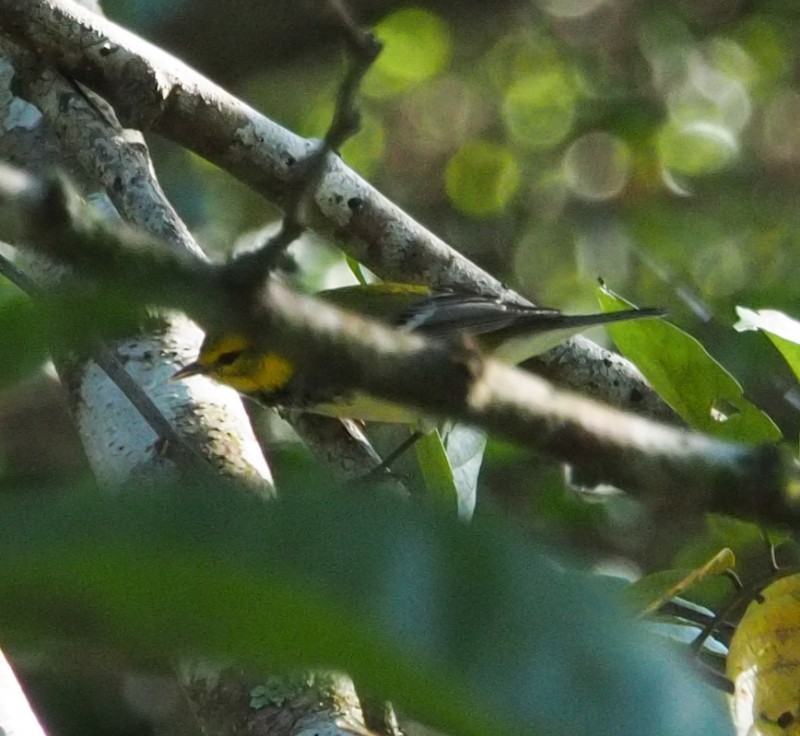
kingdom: Animalia
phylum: Chordata
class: Aves
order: Passeriformes
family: Parulidae
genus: Setophaga
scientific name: Setophaga virens
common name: Black-throated green warbler
